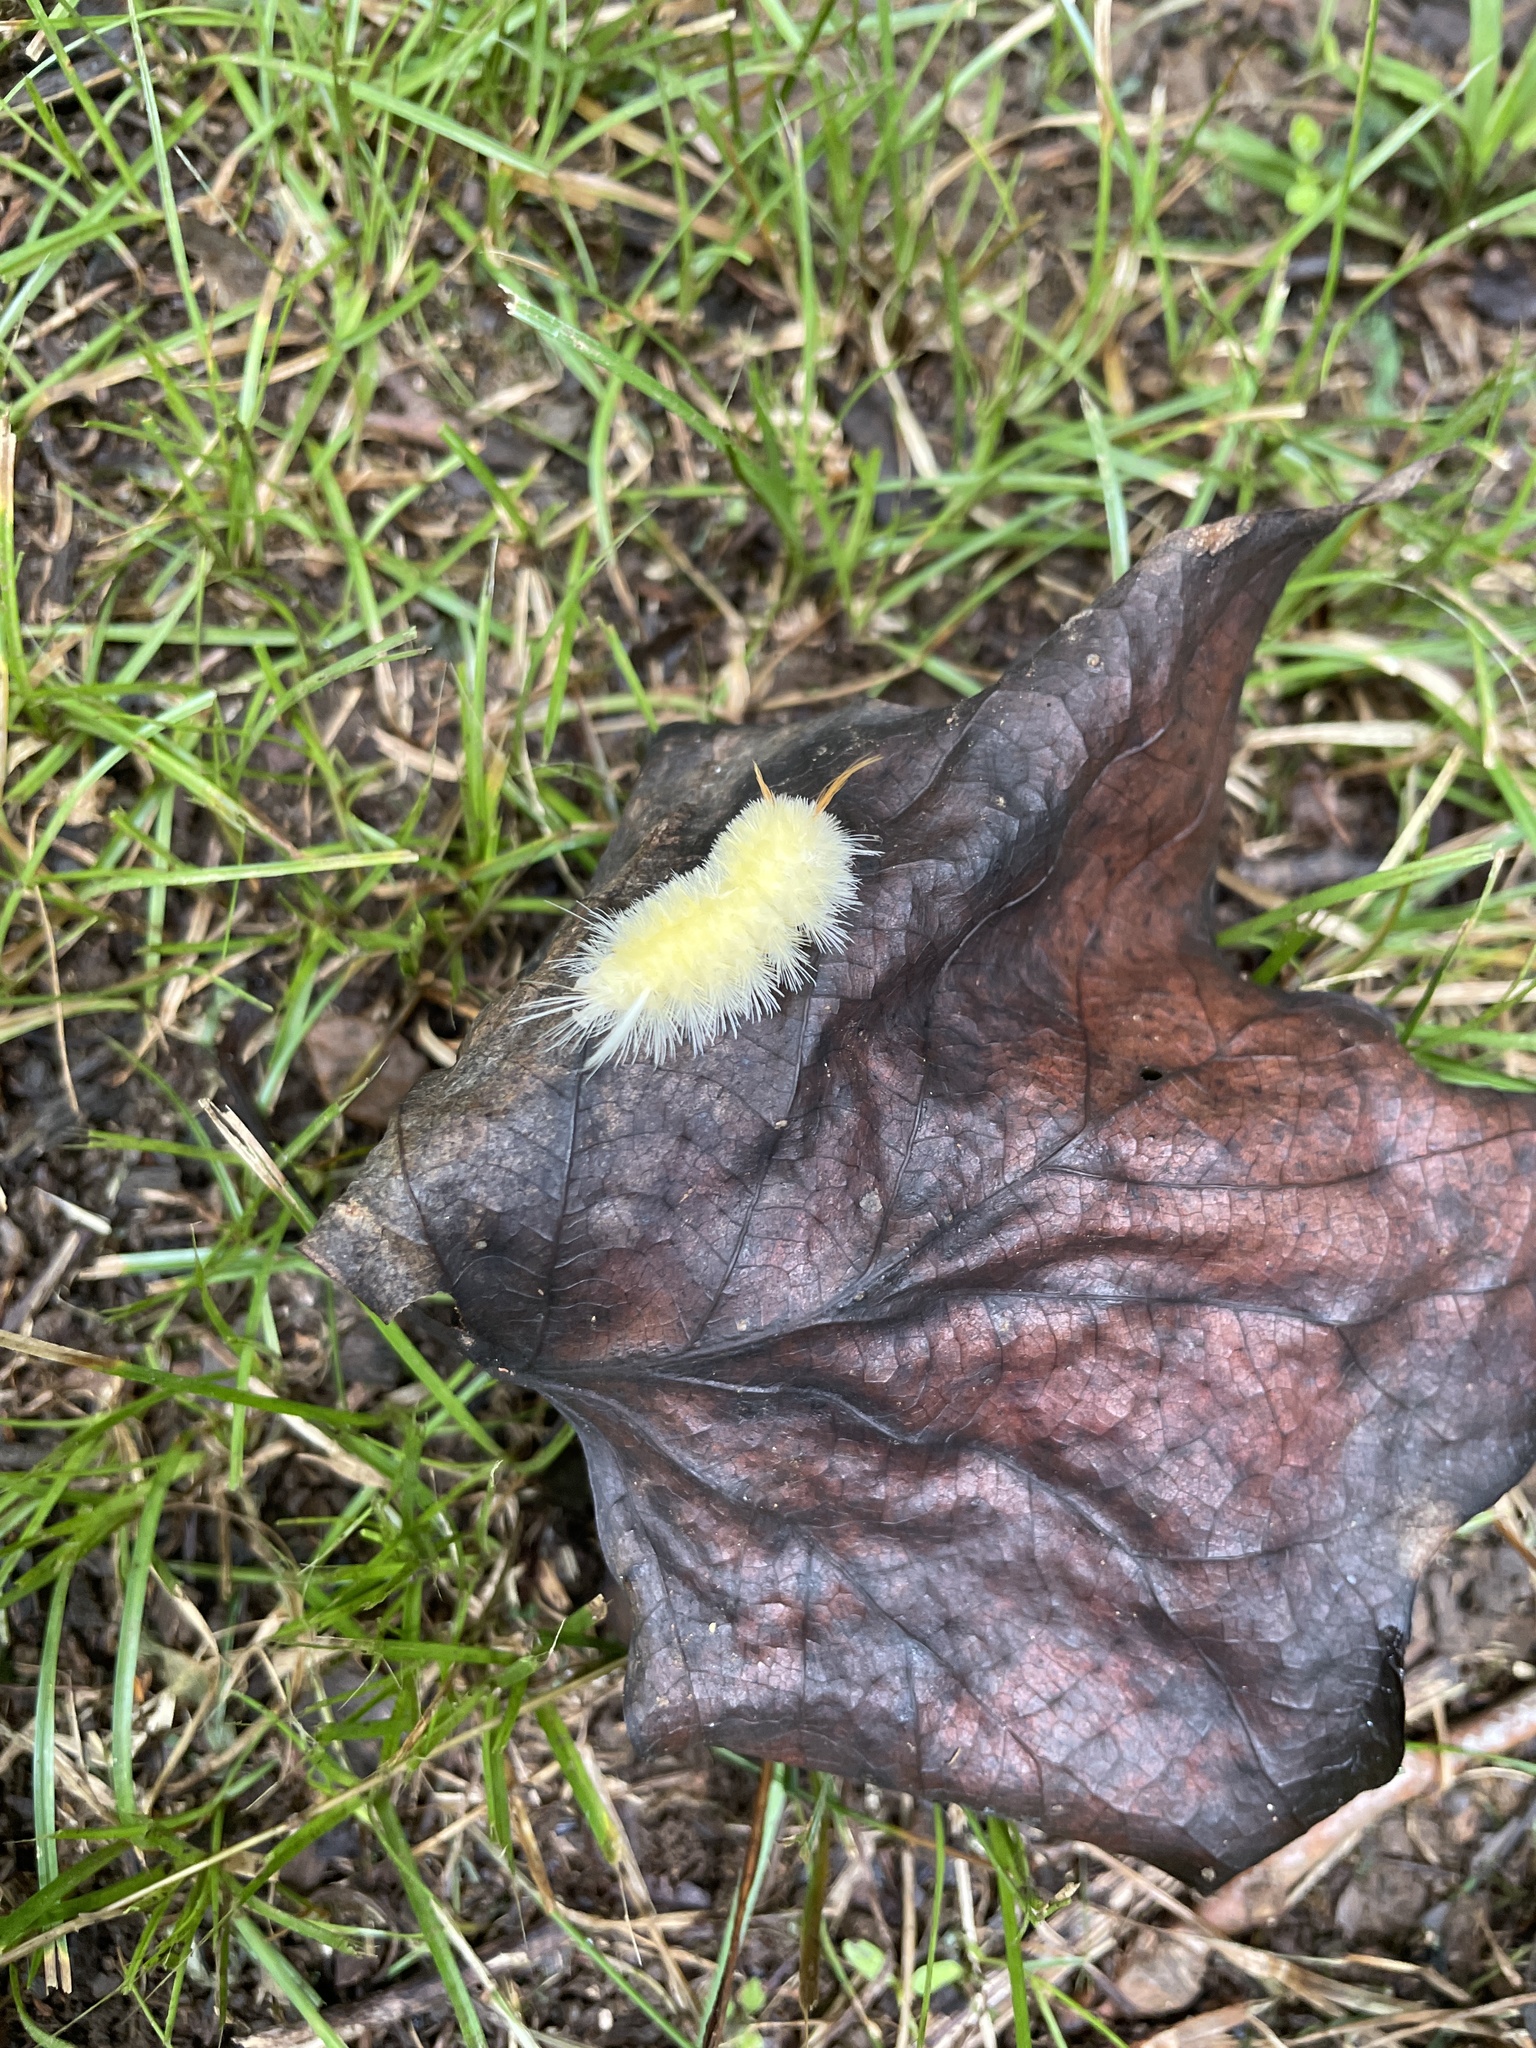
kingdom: Animalia
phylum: Arthropoda
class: Insecta
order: Lepidoptera
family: Erebidae
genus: Halysidota
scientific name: Halysidota harrisii
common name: Sycamore tussock moth
